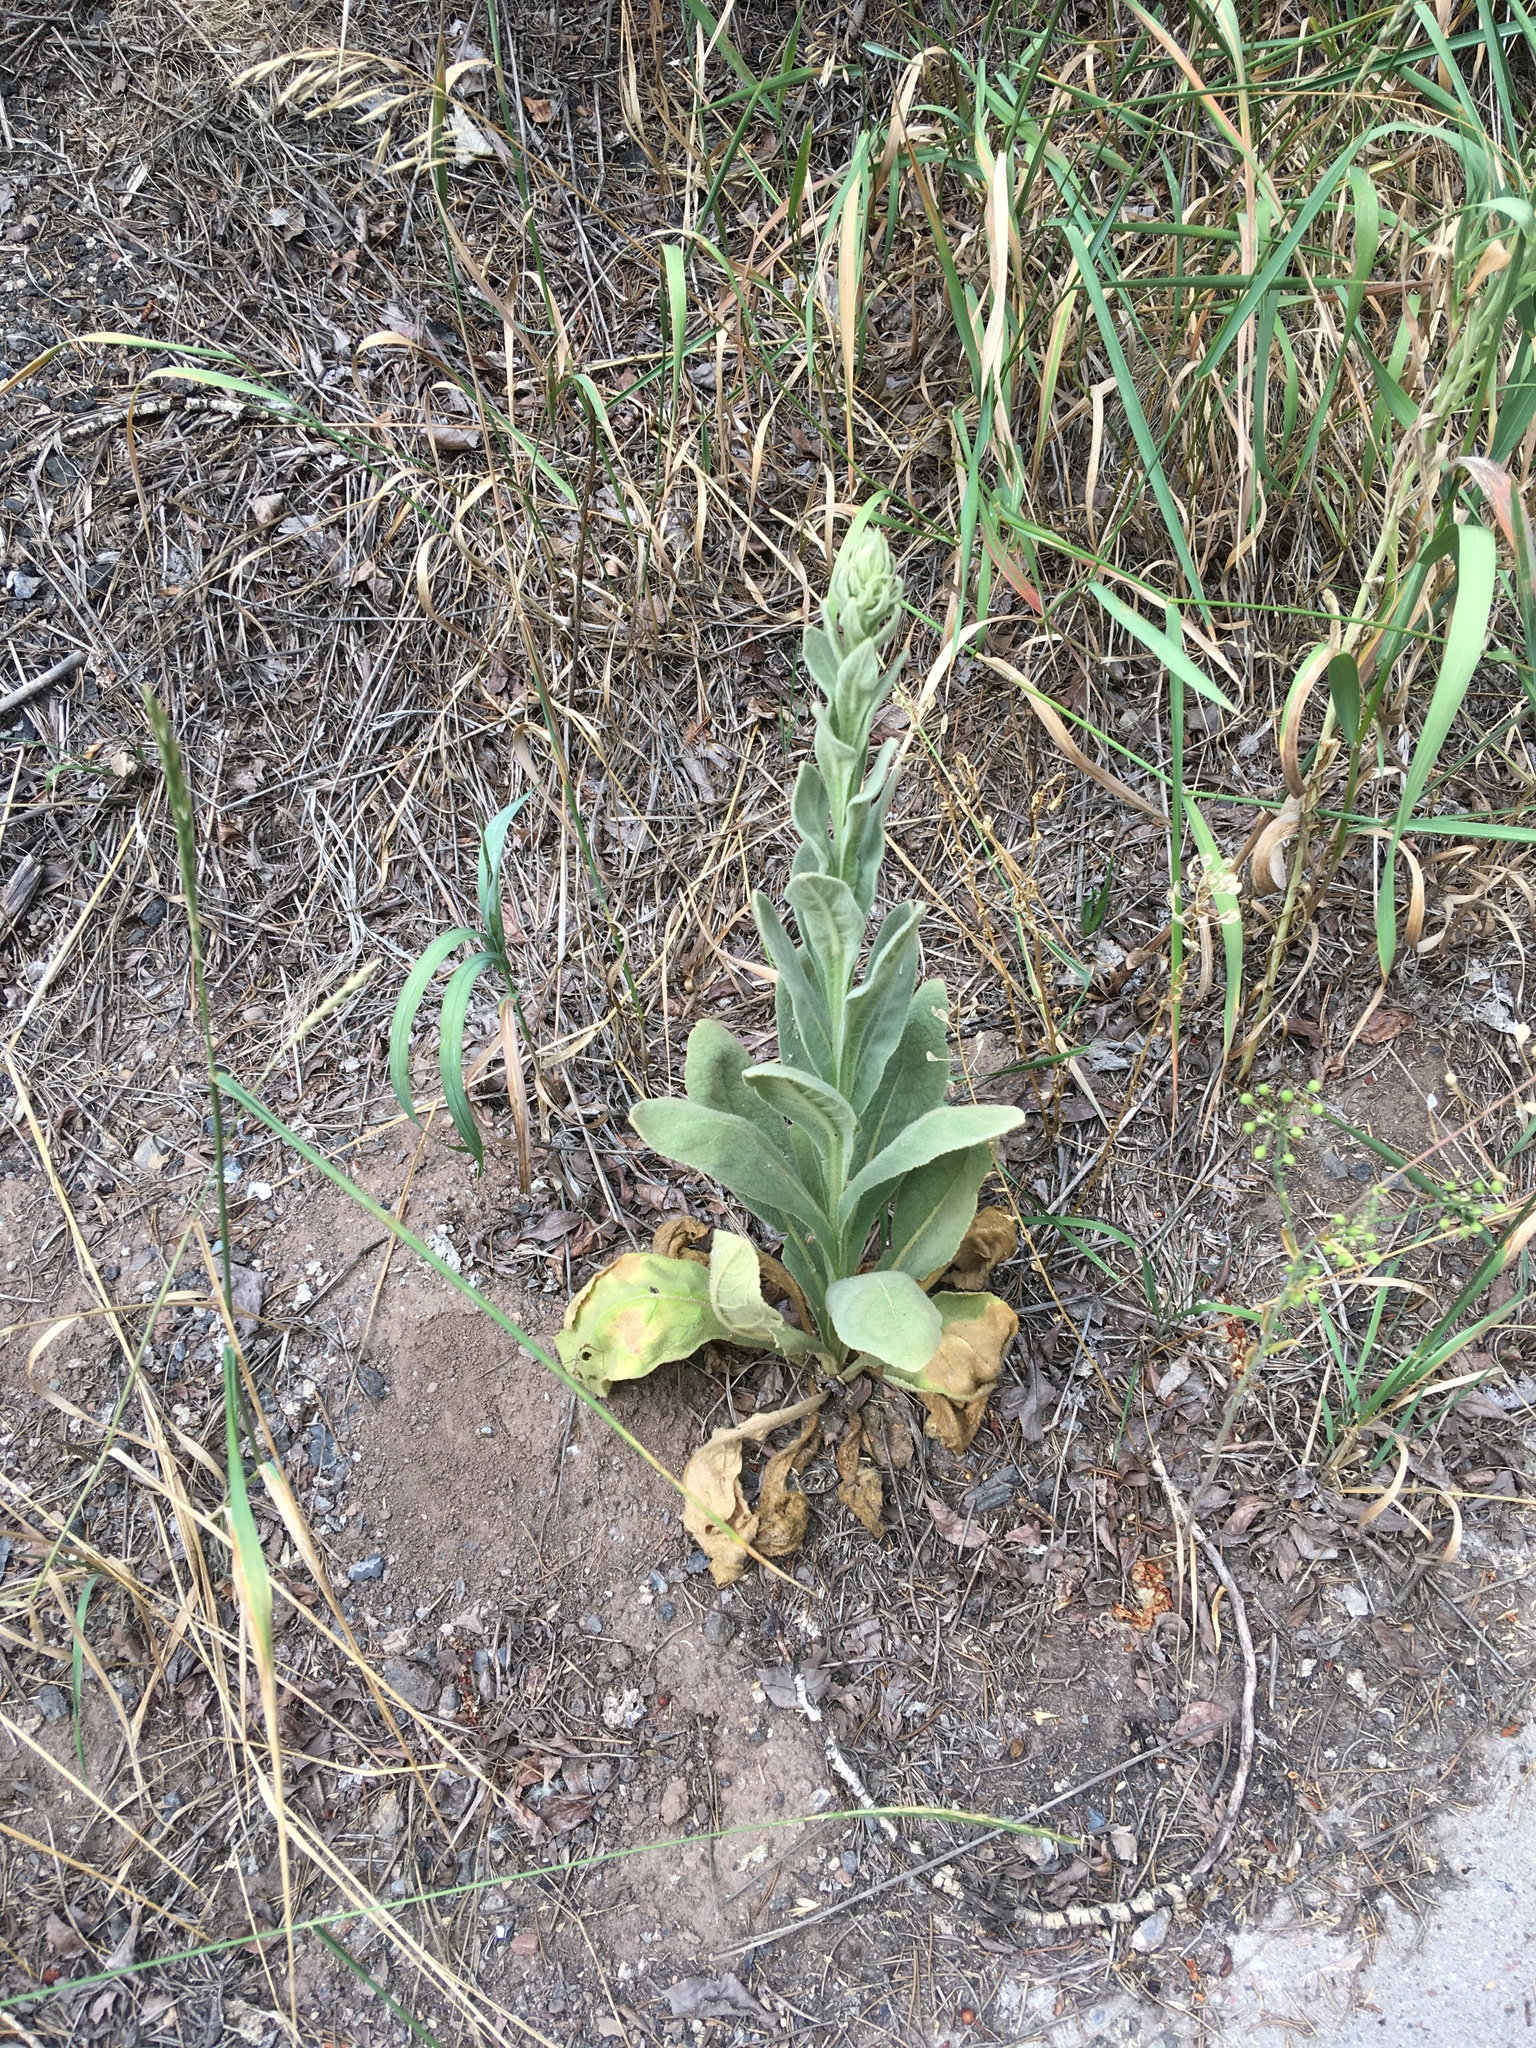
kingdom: Plantae
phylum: Tracheophyta
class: Magnoliopsida
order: Lamiales
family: Scrophulariaceae
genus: Verbascum
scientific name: Verbascum thapsus
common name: Common mullein
